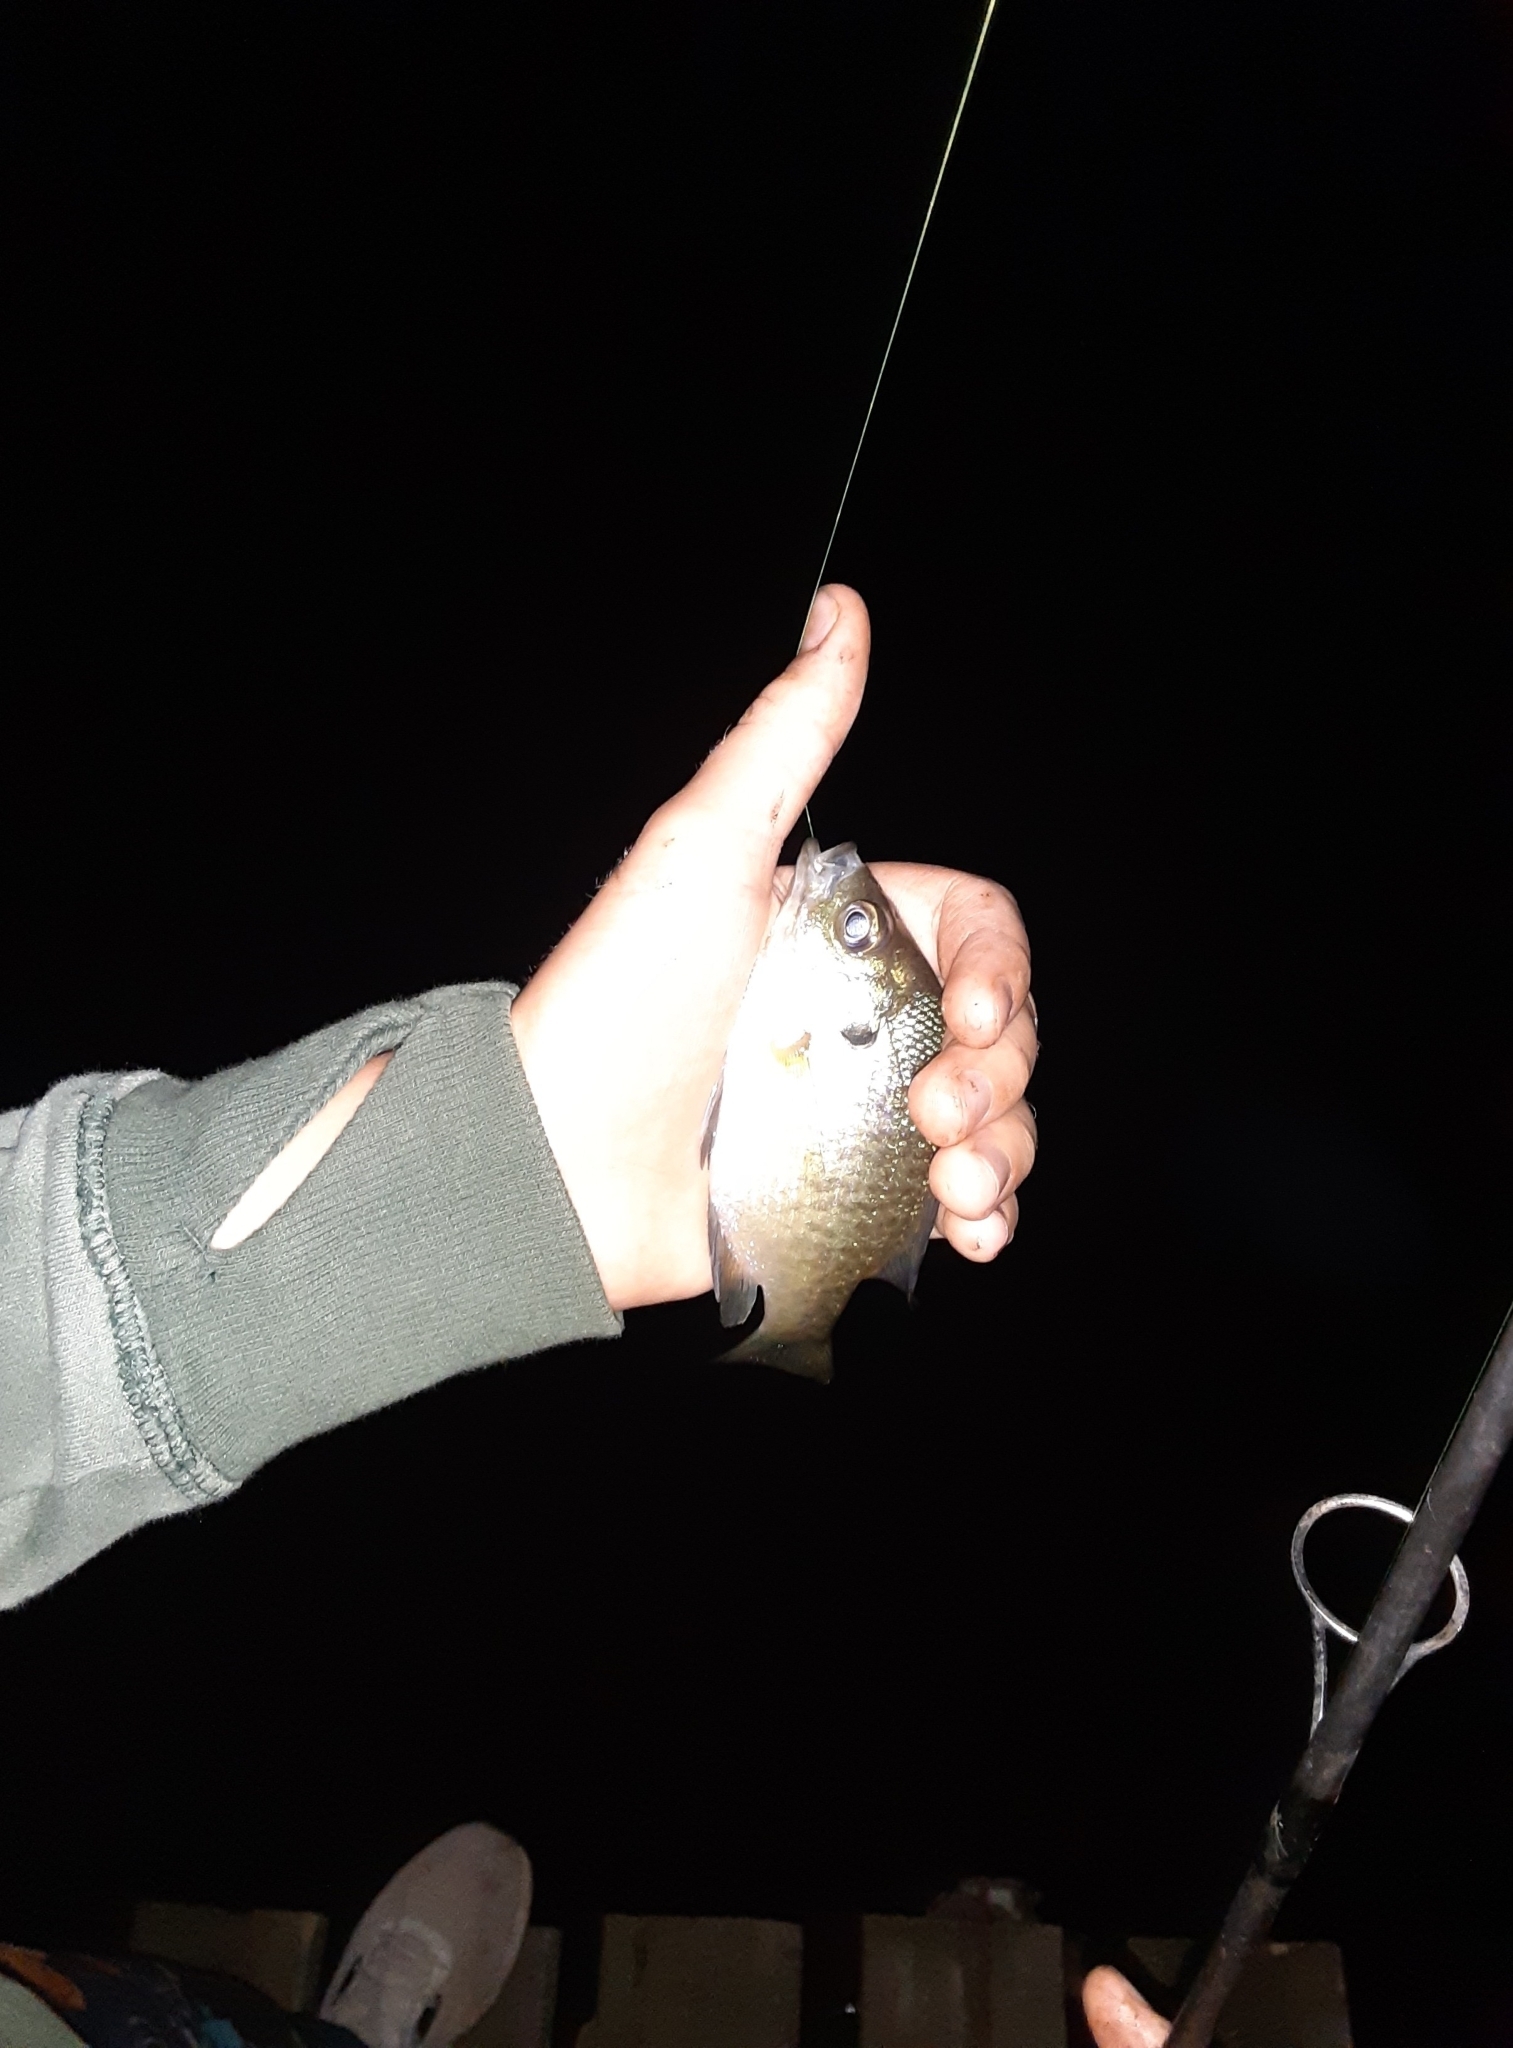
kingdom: Animalia
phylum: Chordata
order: Perciformes
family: Centrarchidae
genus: Lepomis
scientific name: Lepomis macrochirus
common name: Bluegill
